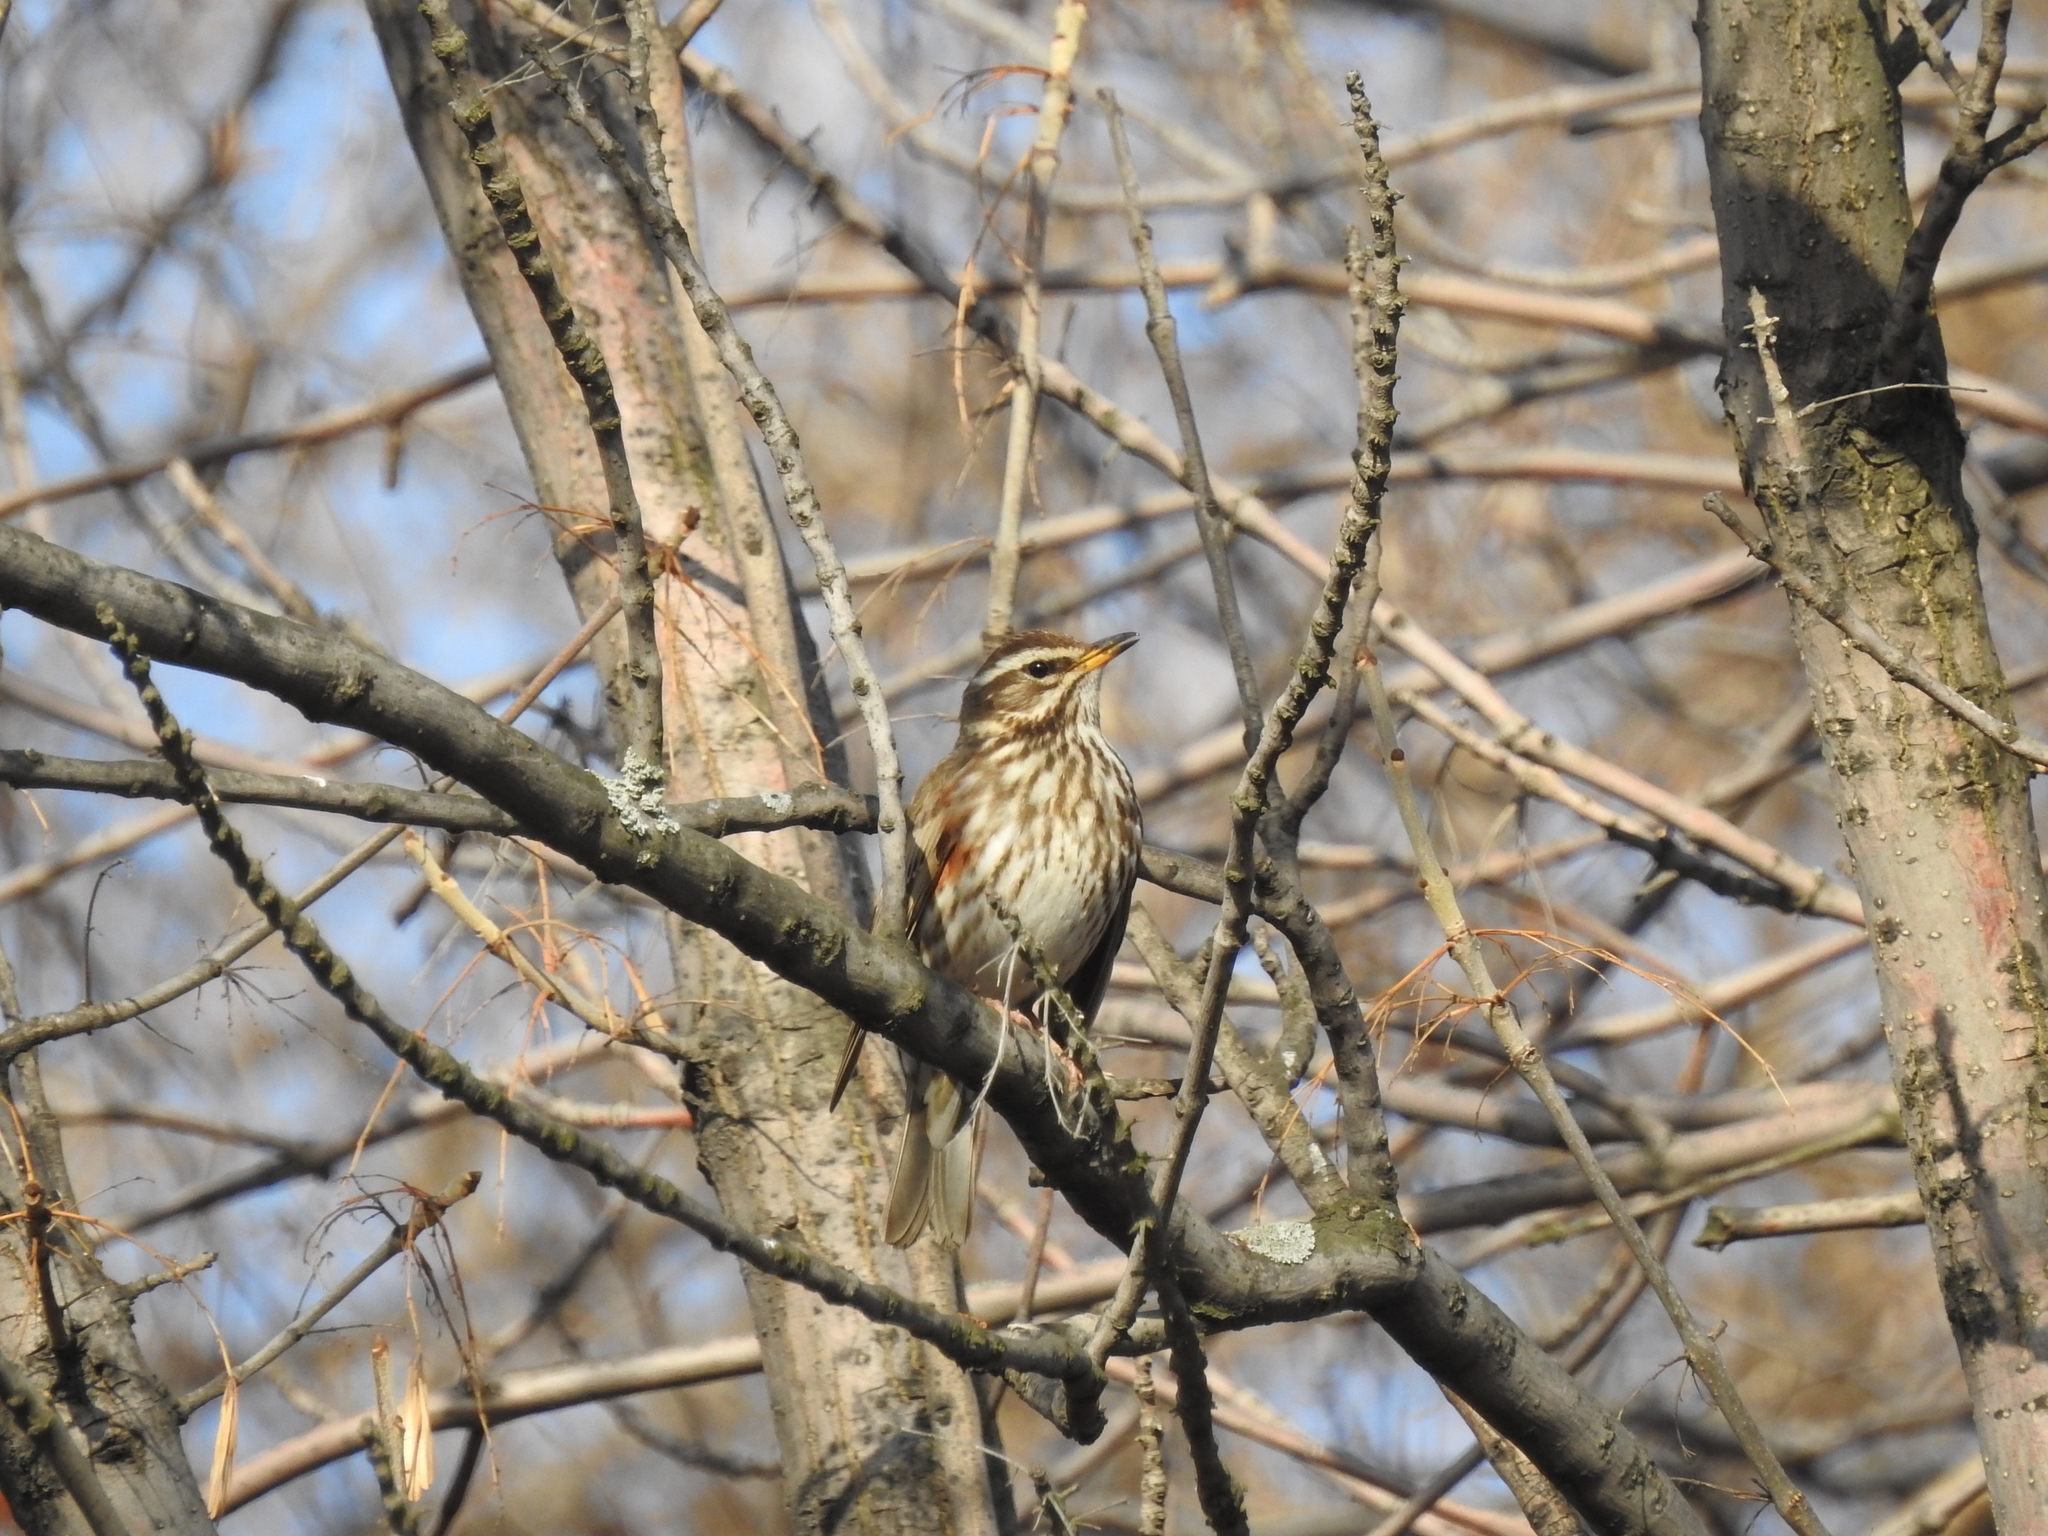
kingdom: Animalia
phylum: Chordata
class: Aves
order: Passeriformes
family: Turdidae
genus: Turdus
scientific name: Turdus iliacus
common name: Redwing
